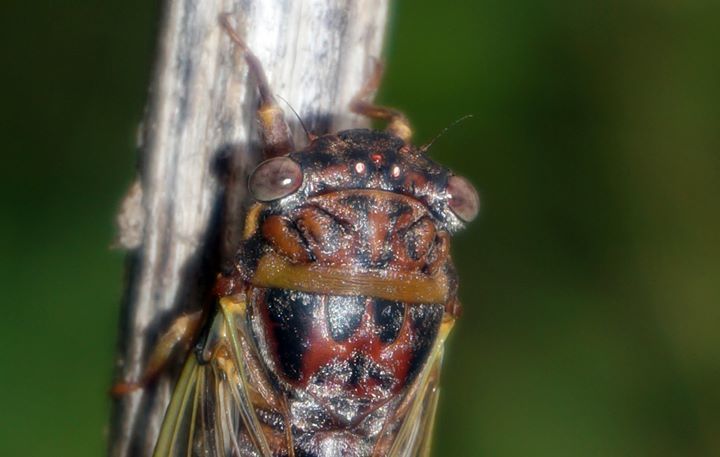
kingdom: Animalia
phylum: Arthropoda
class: Insecta
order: Hemiptera
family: Cicadidae
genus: Diceroprocta
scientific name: Diceroprocta olympusa
